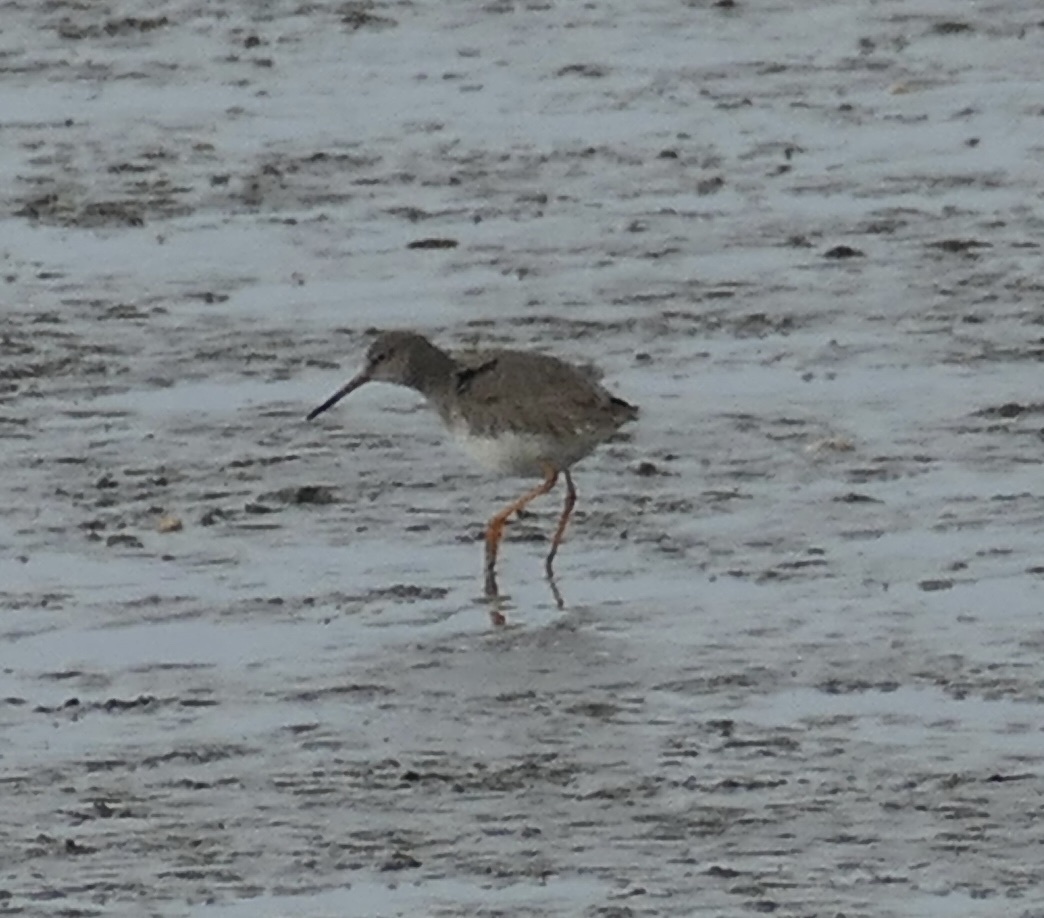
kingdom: Animalia
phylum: Chordata
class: Aves
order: Charadriiformes
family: Scolopacidae
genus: Tringa
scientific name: Tringa totanus
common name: Common redshank
